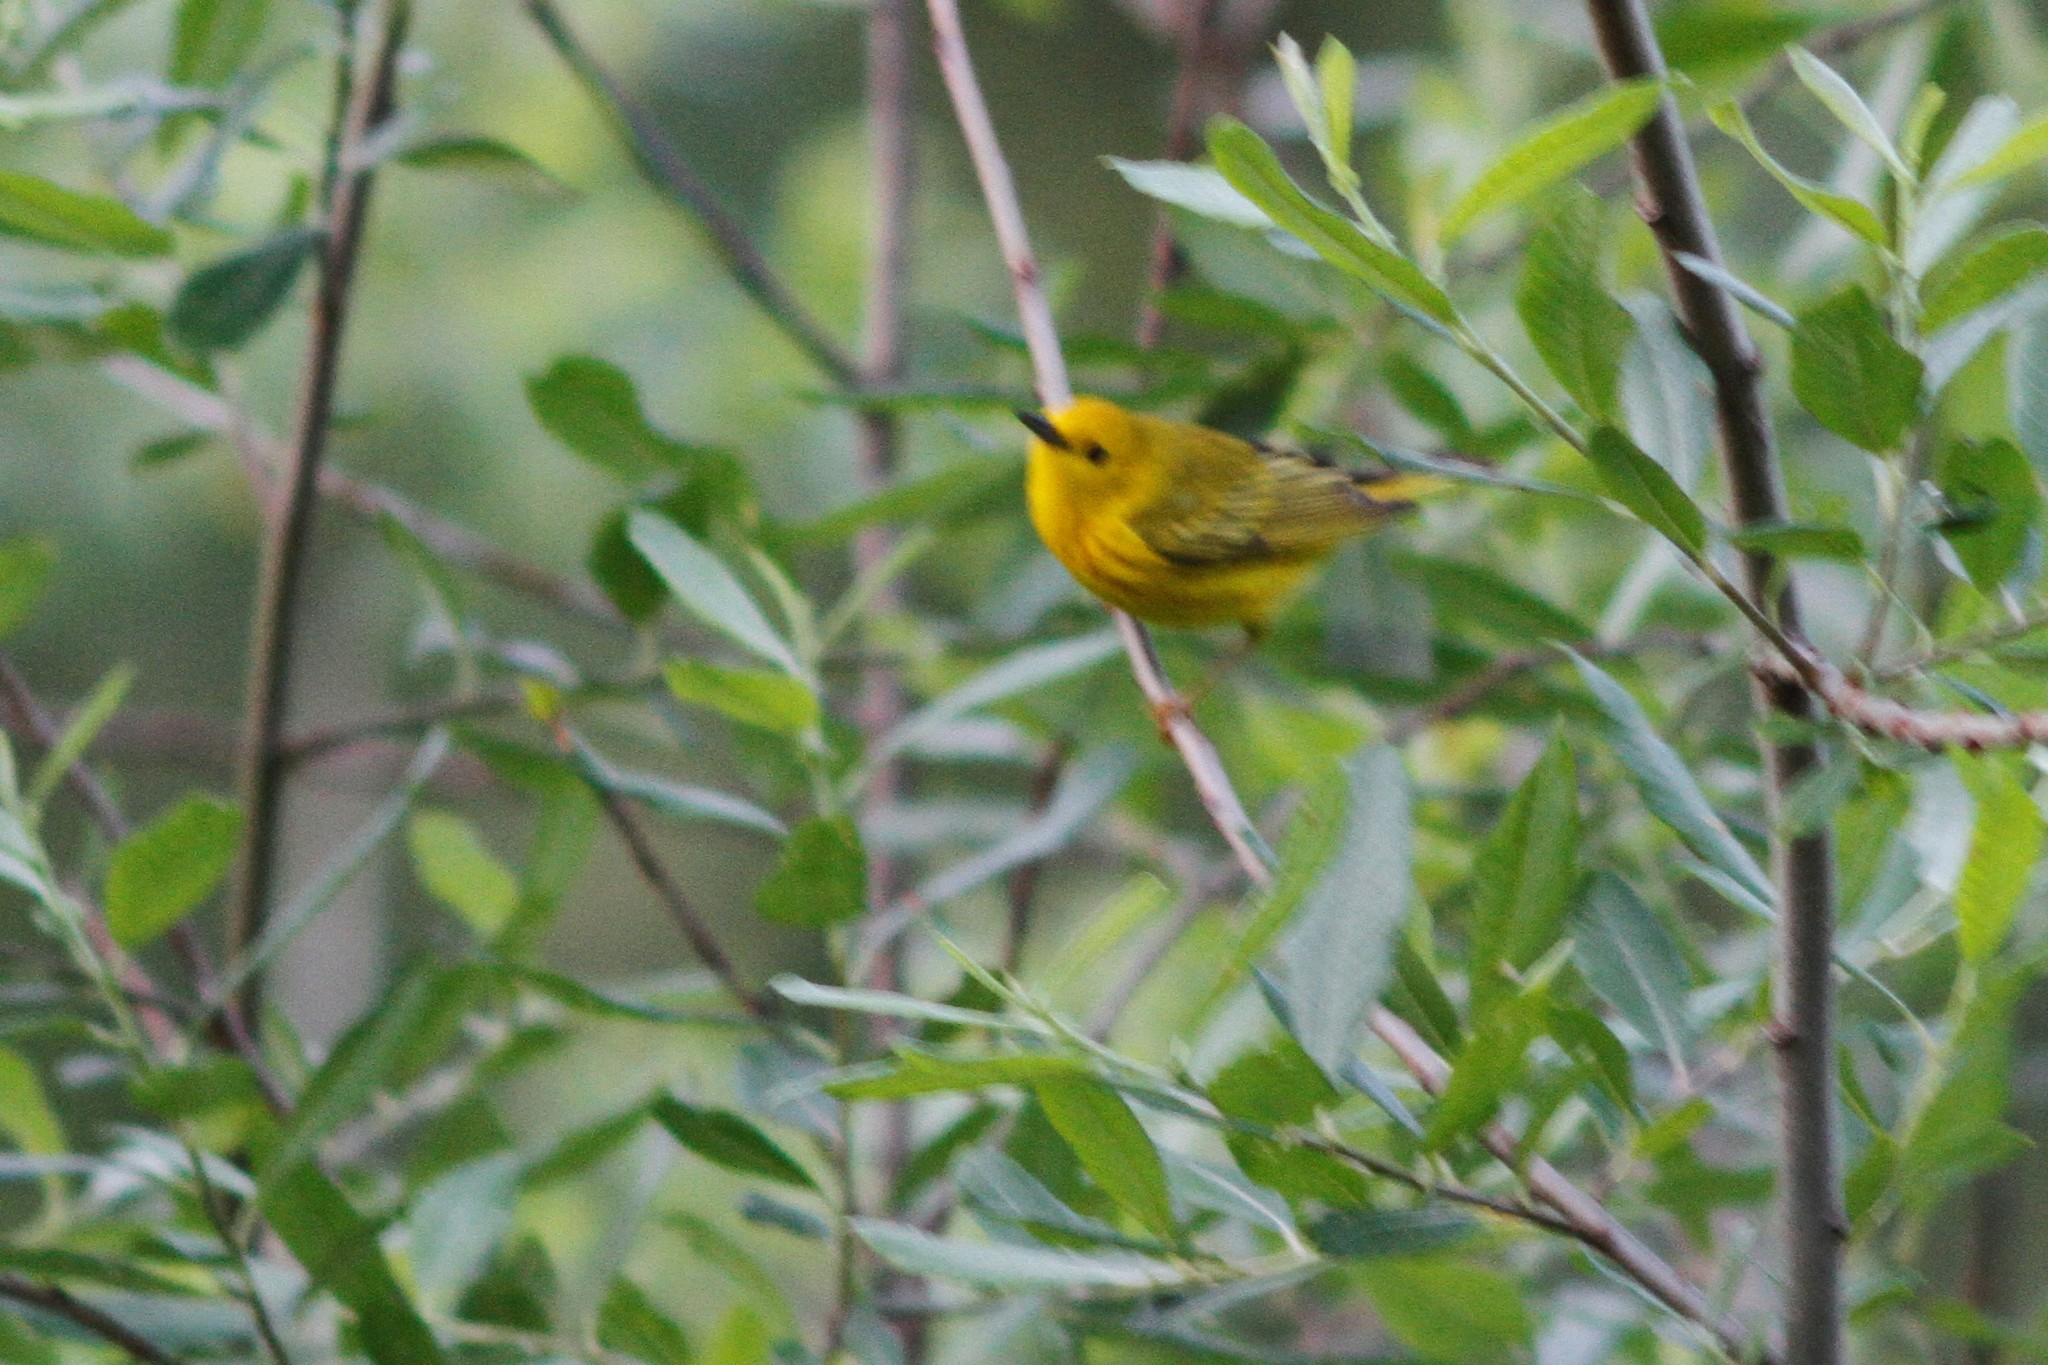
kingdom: Animalia
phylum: Chordata
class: Aves
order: Passeriformes
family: Parulidae
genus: Setophaga
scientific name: Setophaga petechia
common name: Yellow warbler
